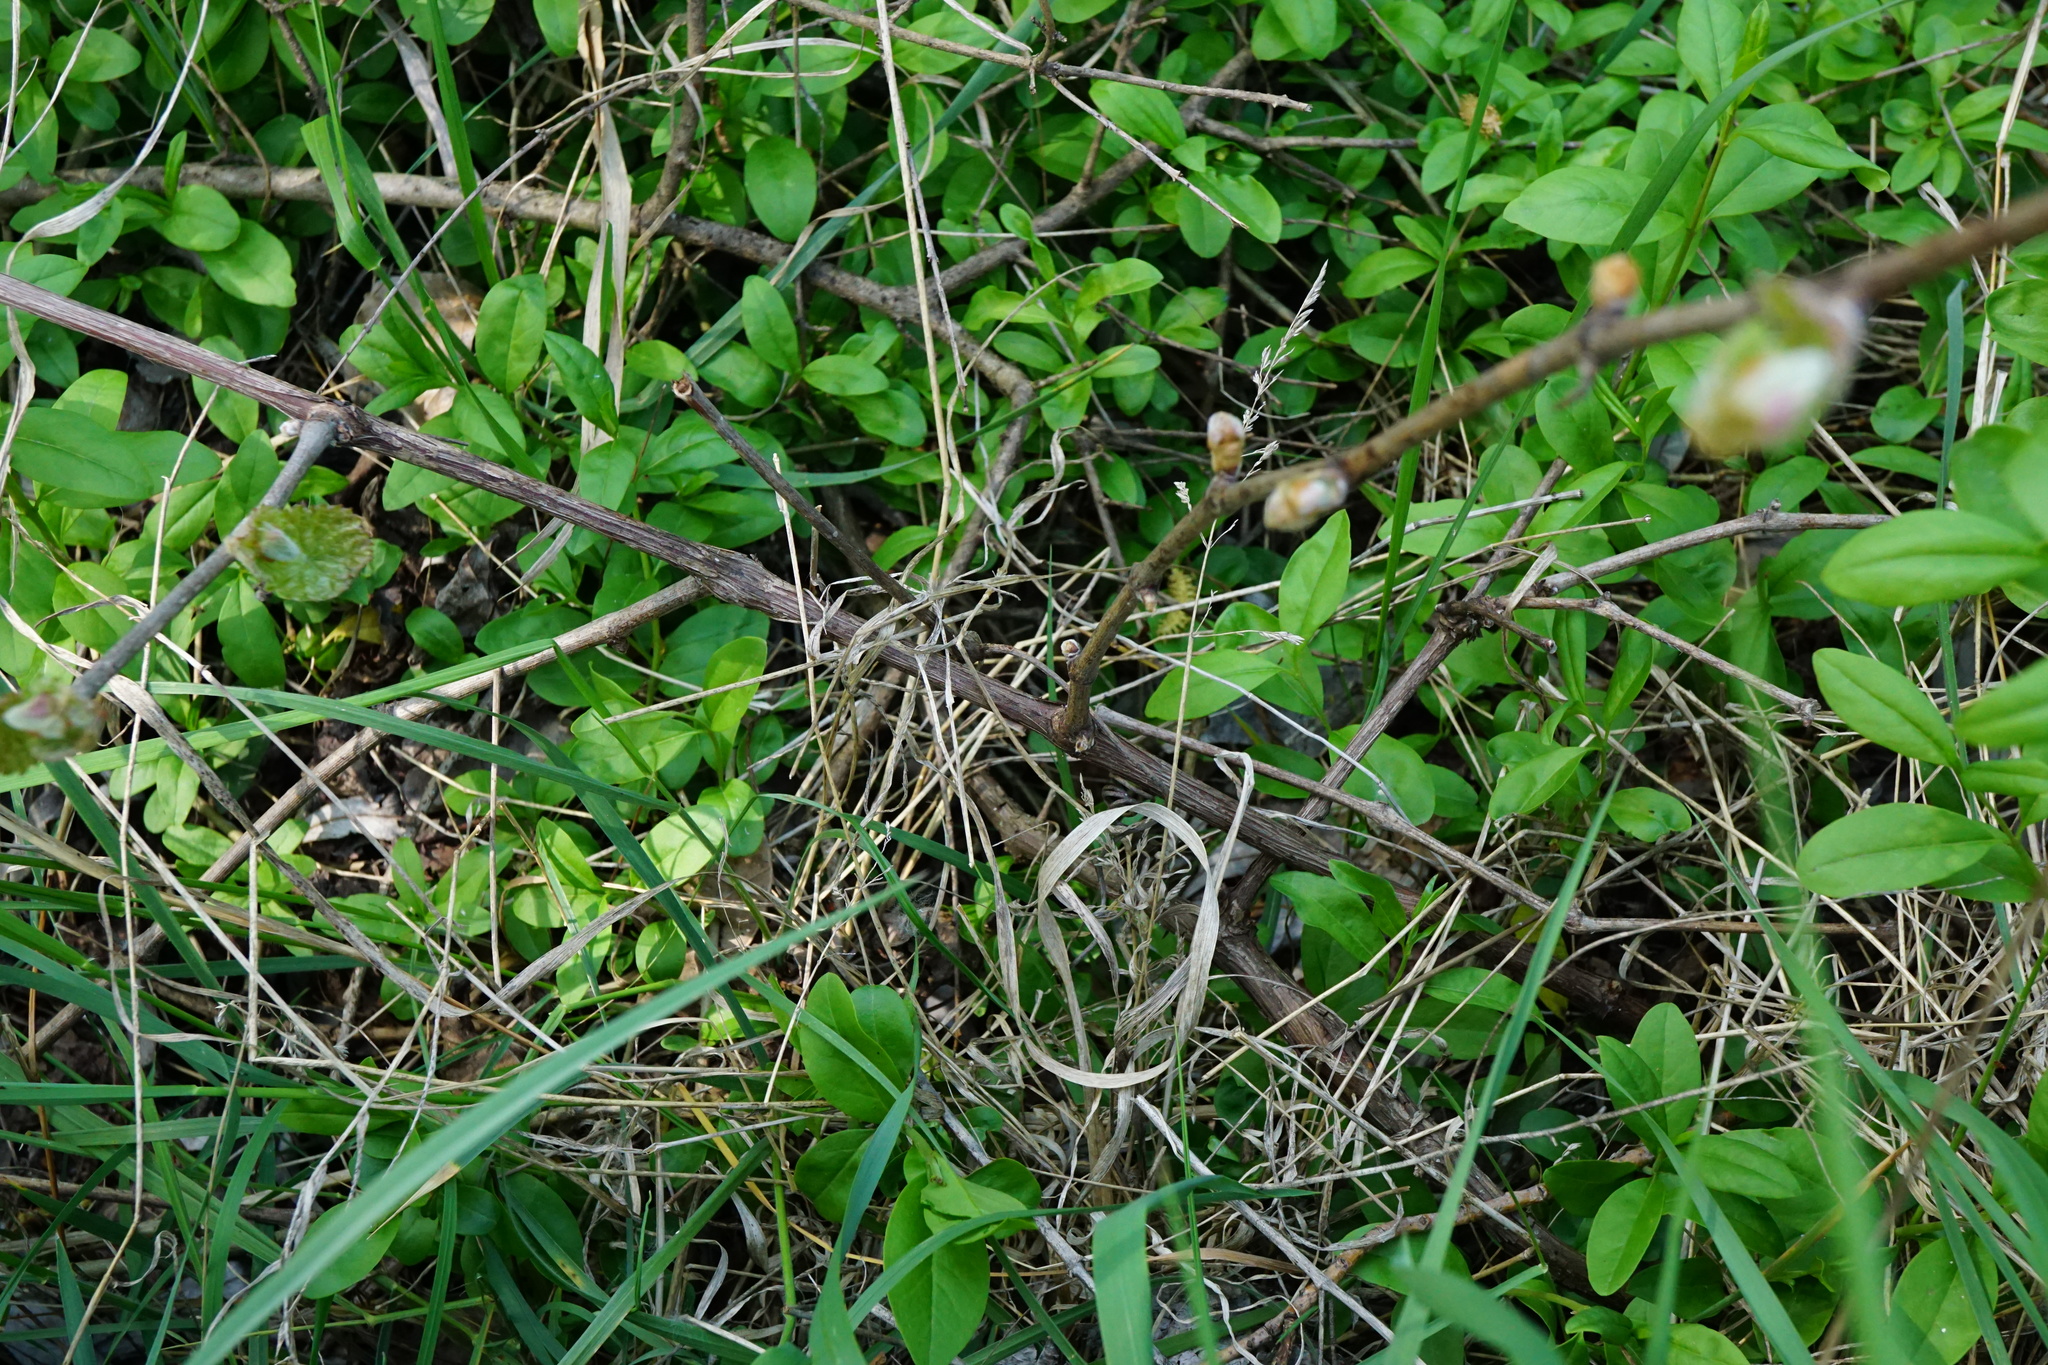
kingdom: Plantae
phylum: Tracheophyta
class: Magnoliopsida
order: Vitales
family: Vitaceae
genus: Vitis
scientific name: Vitis vinifera
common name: Grape-vine
